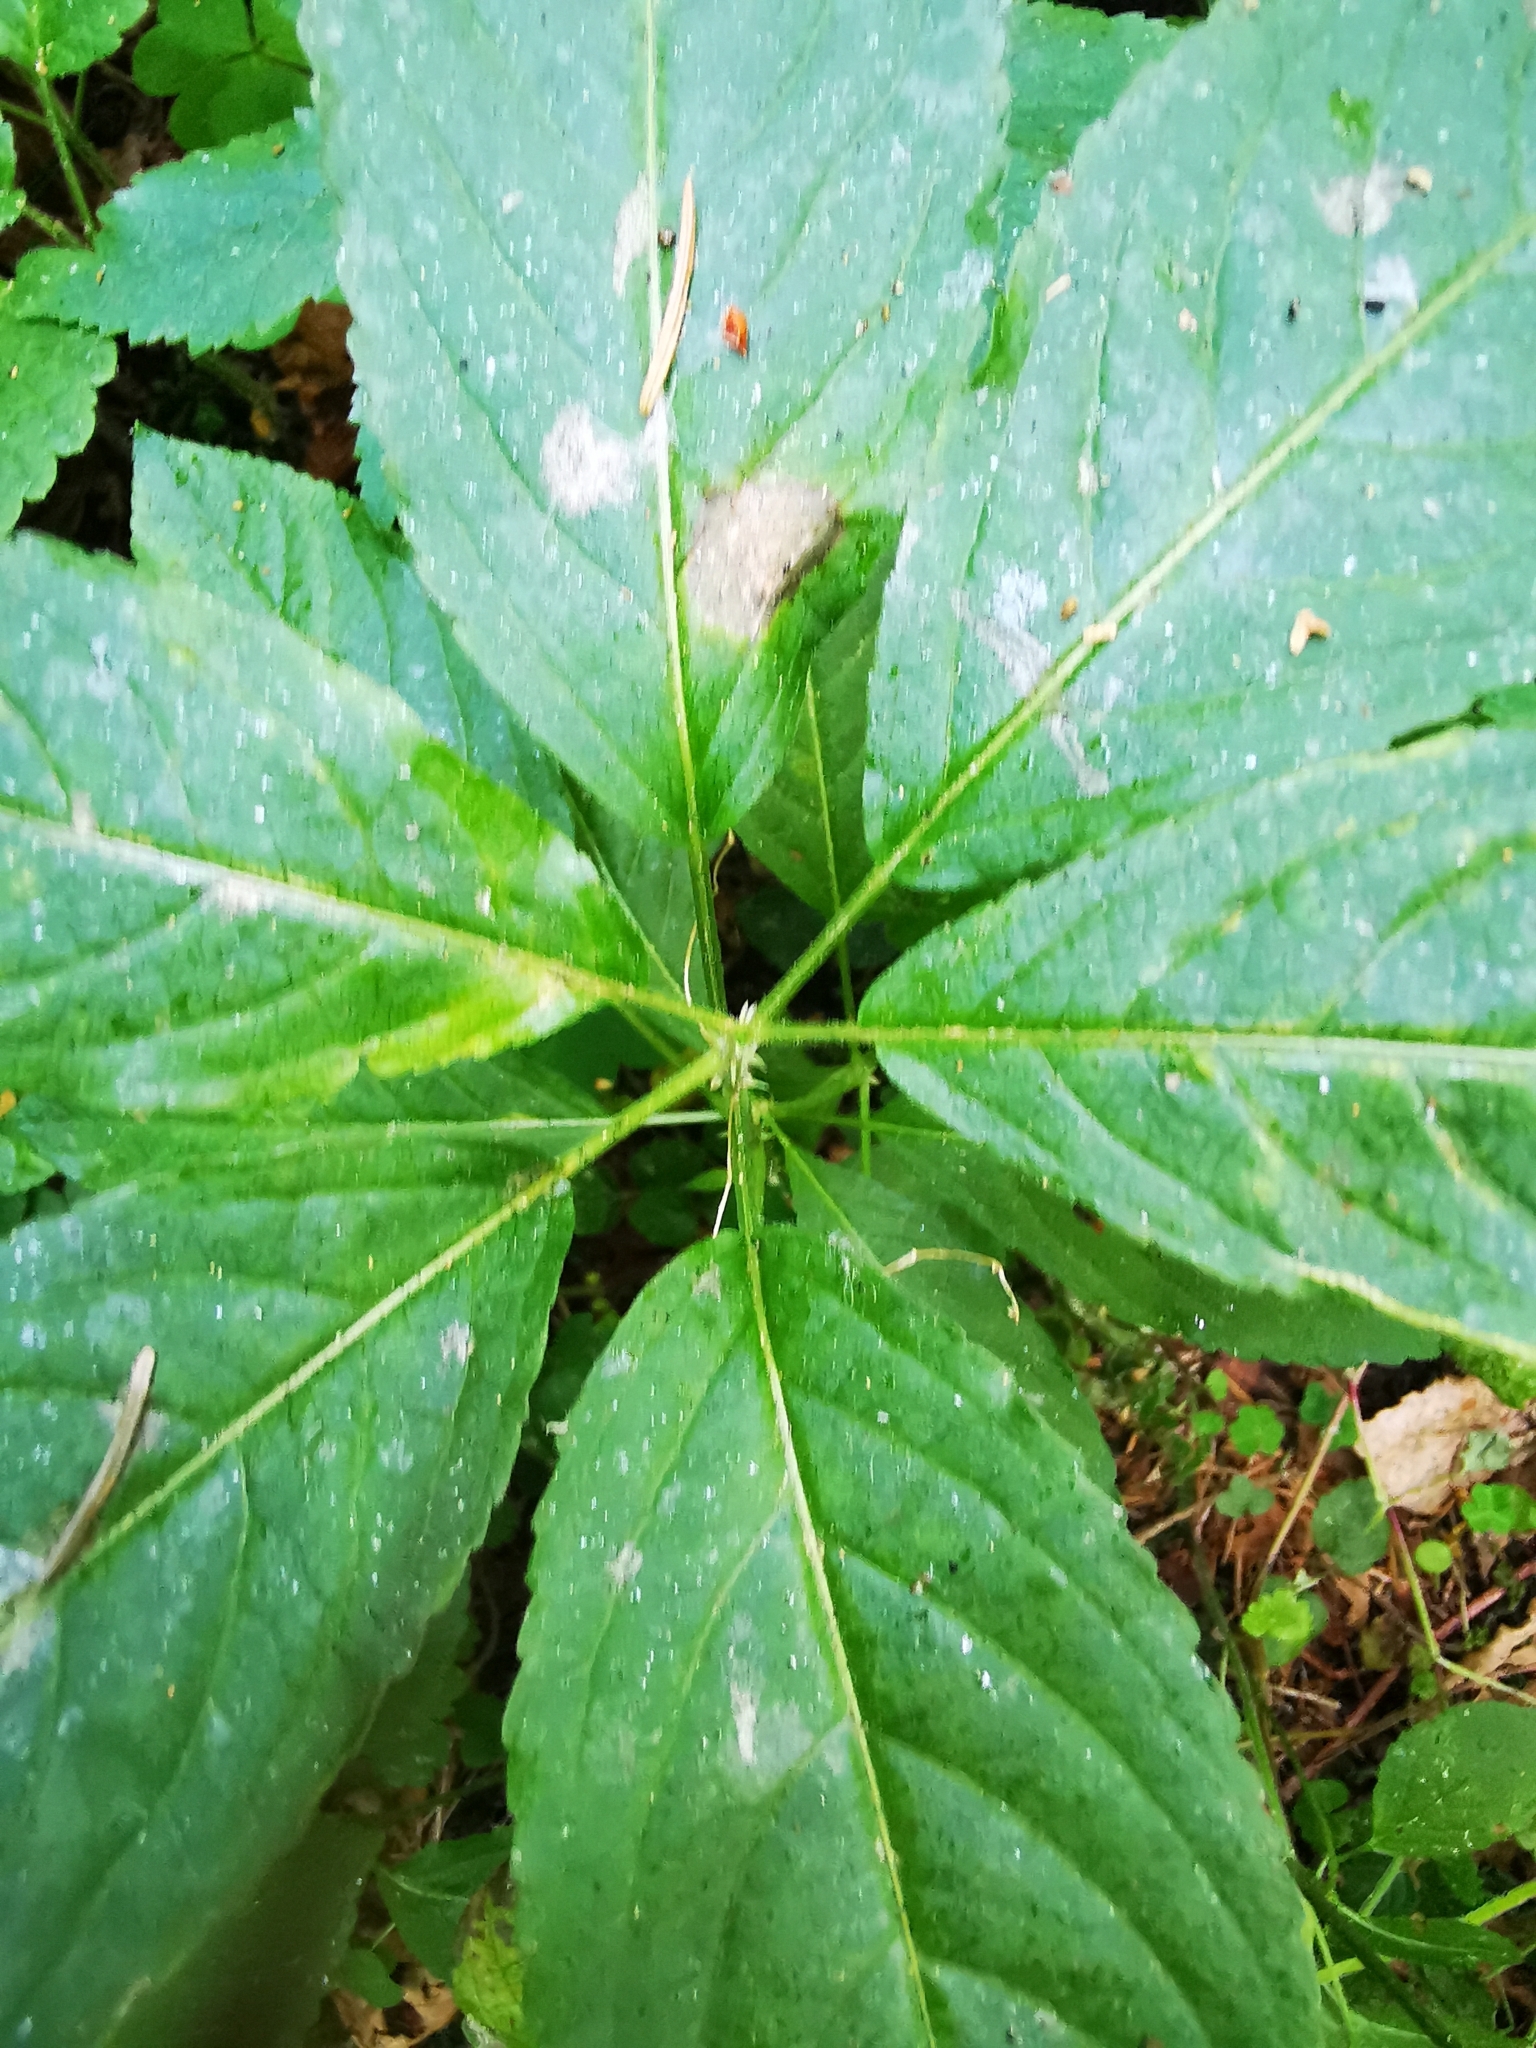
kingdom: Plantae
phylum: Tracheophyta
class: Magnoliopsida
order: Malpighiales
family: Euphorbiaceae
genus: Mercurialis
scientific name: Mercurialis perennis
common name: Dog mercury
